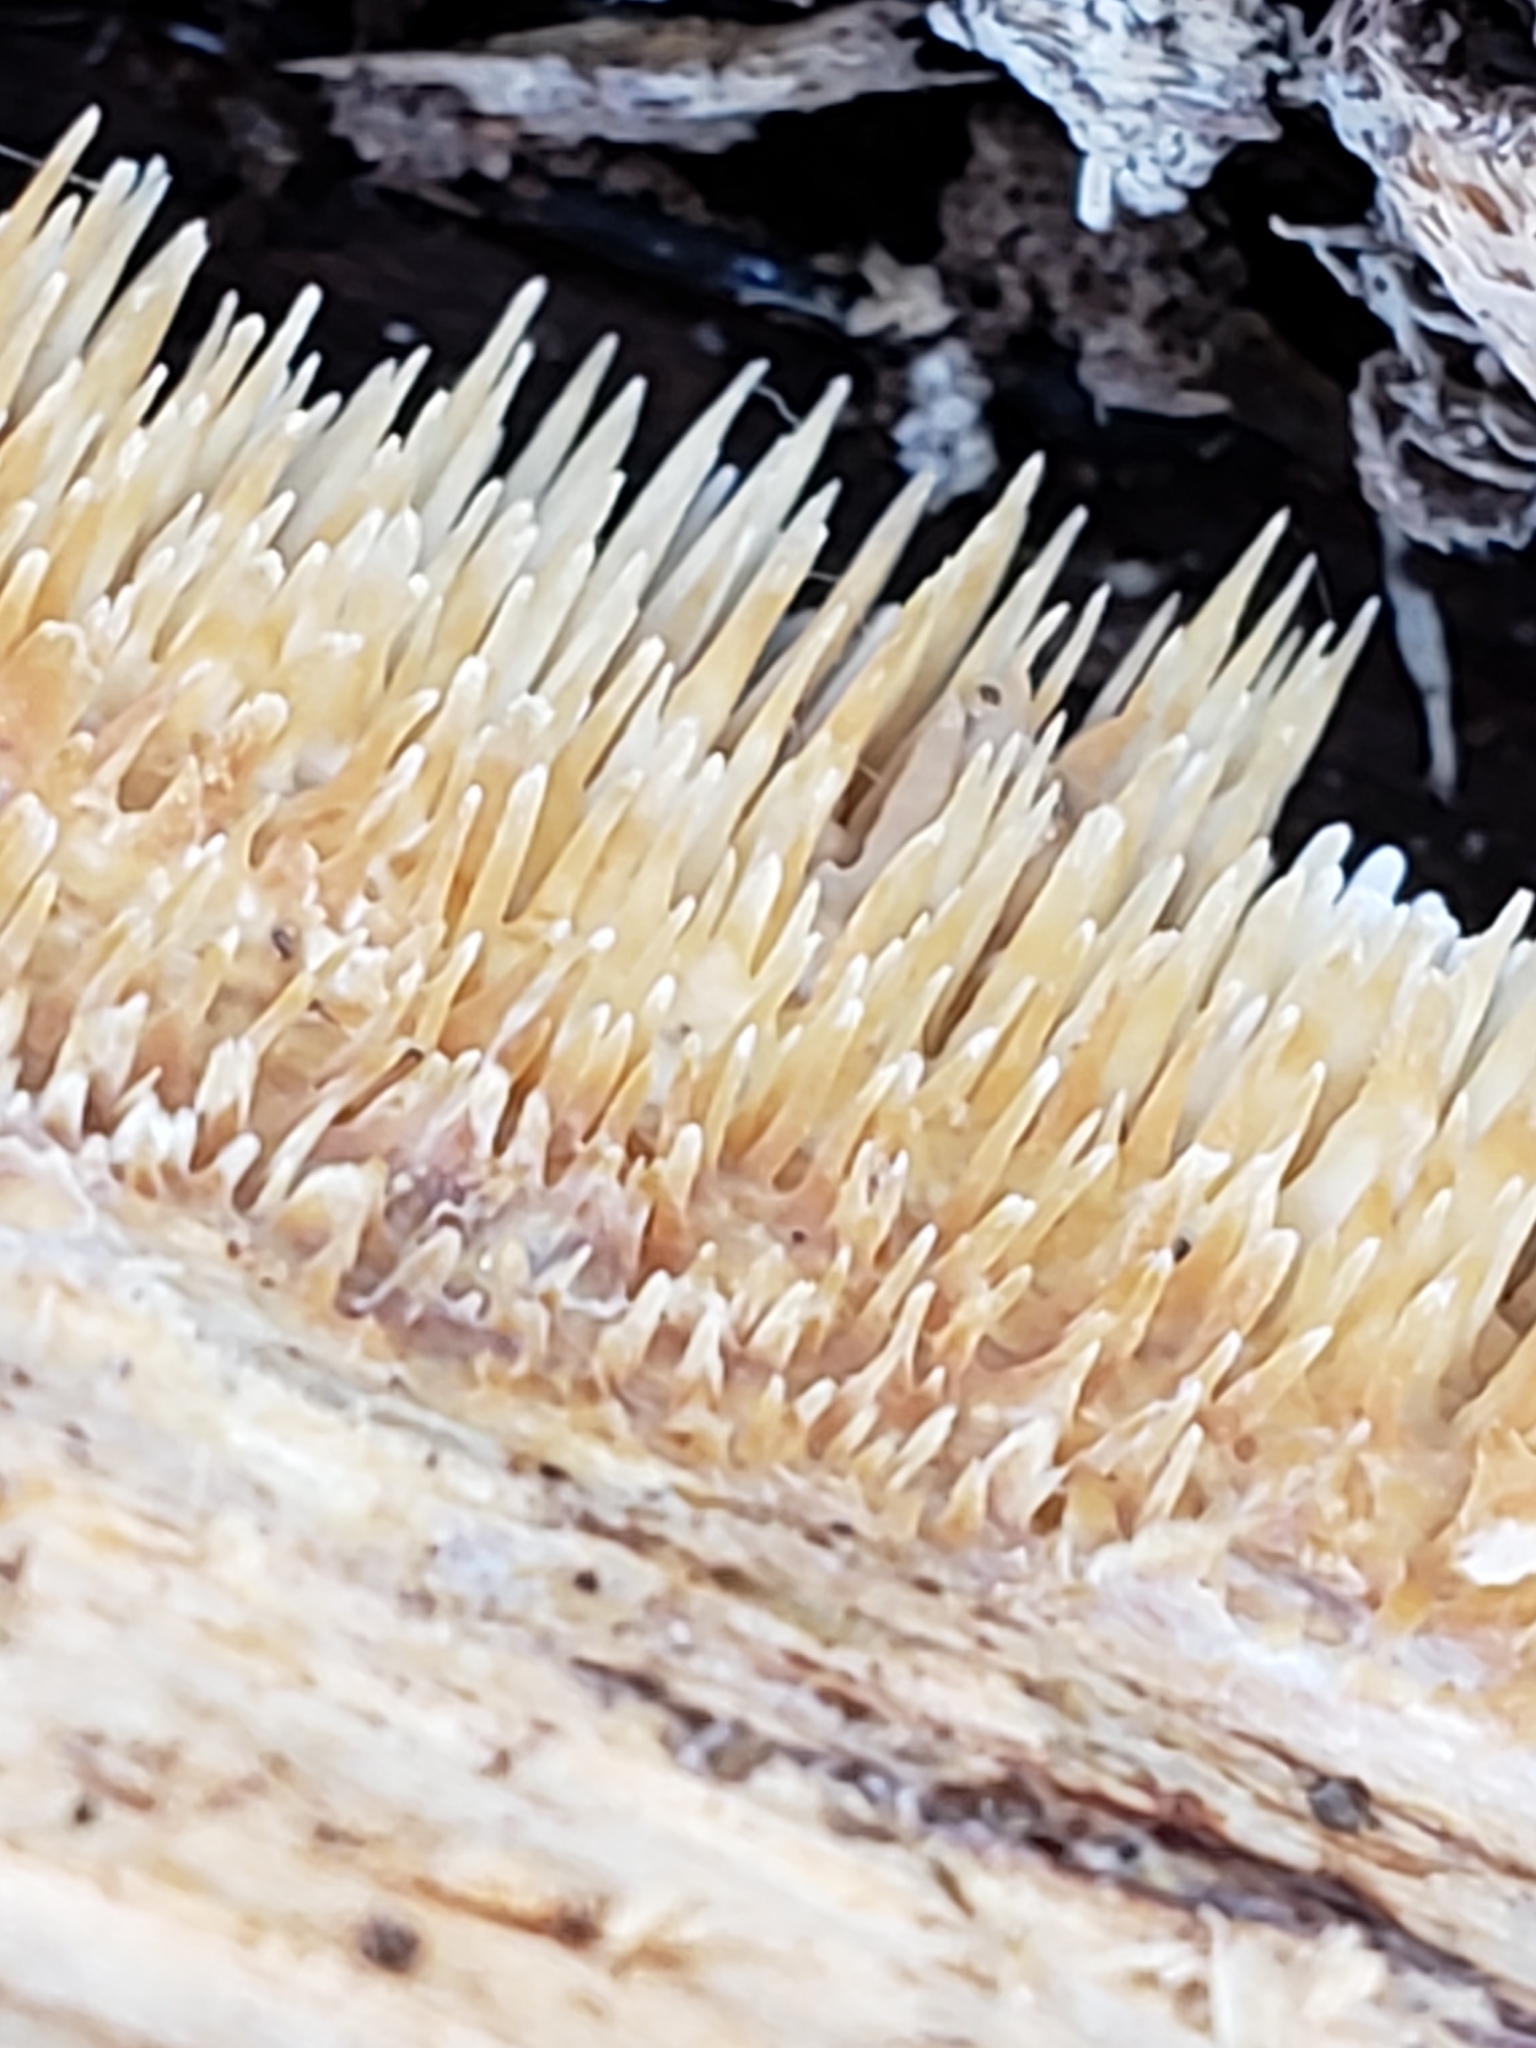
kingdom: Fungi
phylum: Basidiomycota
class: Agaricomycetes
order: Agaricales
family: Radulomycetaceae
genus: Radulomyces
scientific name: Radulomyces copelandii
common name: Asian beauty
